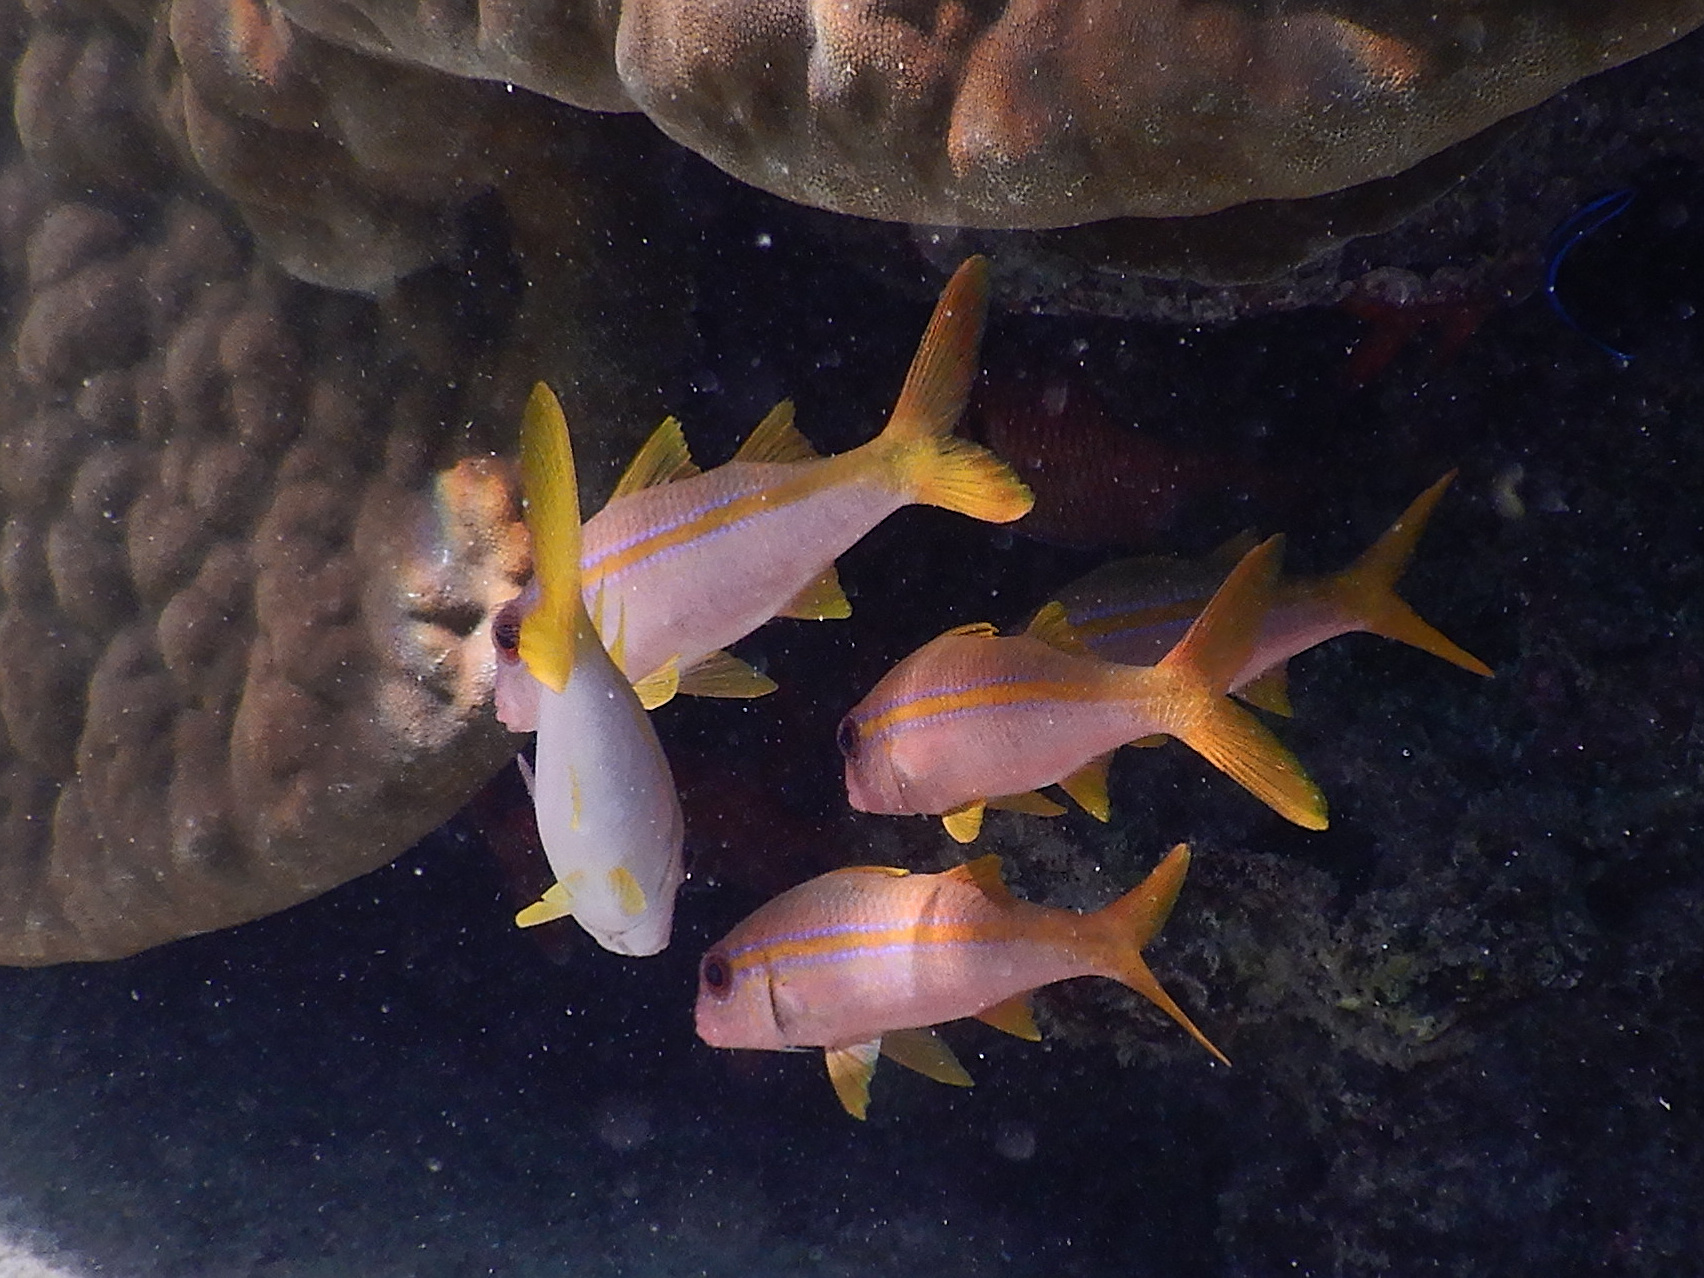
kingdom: Animalia
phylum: Chordata
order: Perciformes
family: Mullidae
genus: Mulloidichthys
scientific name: Mulloidichthys vanicolensis
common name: Yellowfin goatfish
